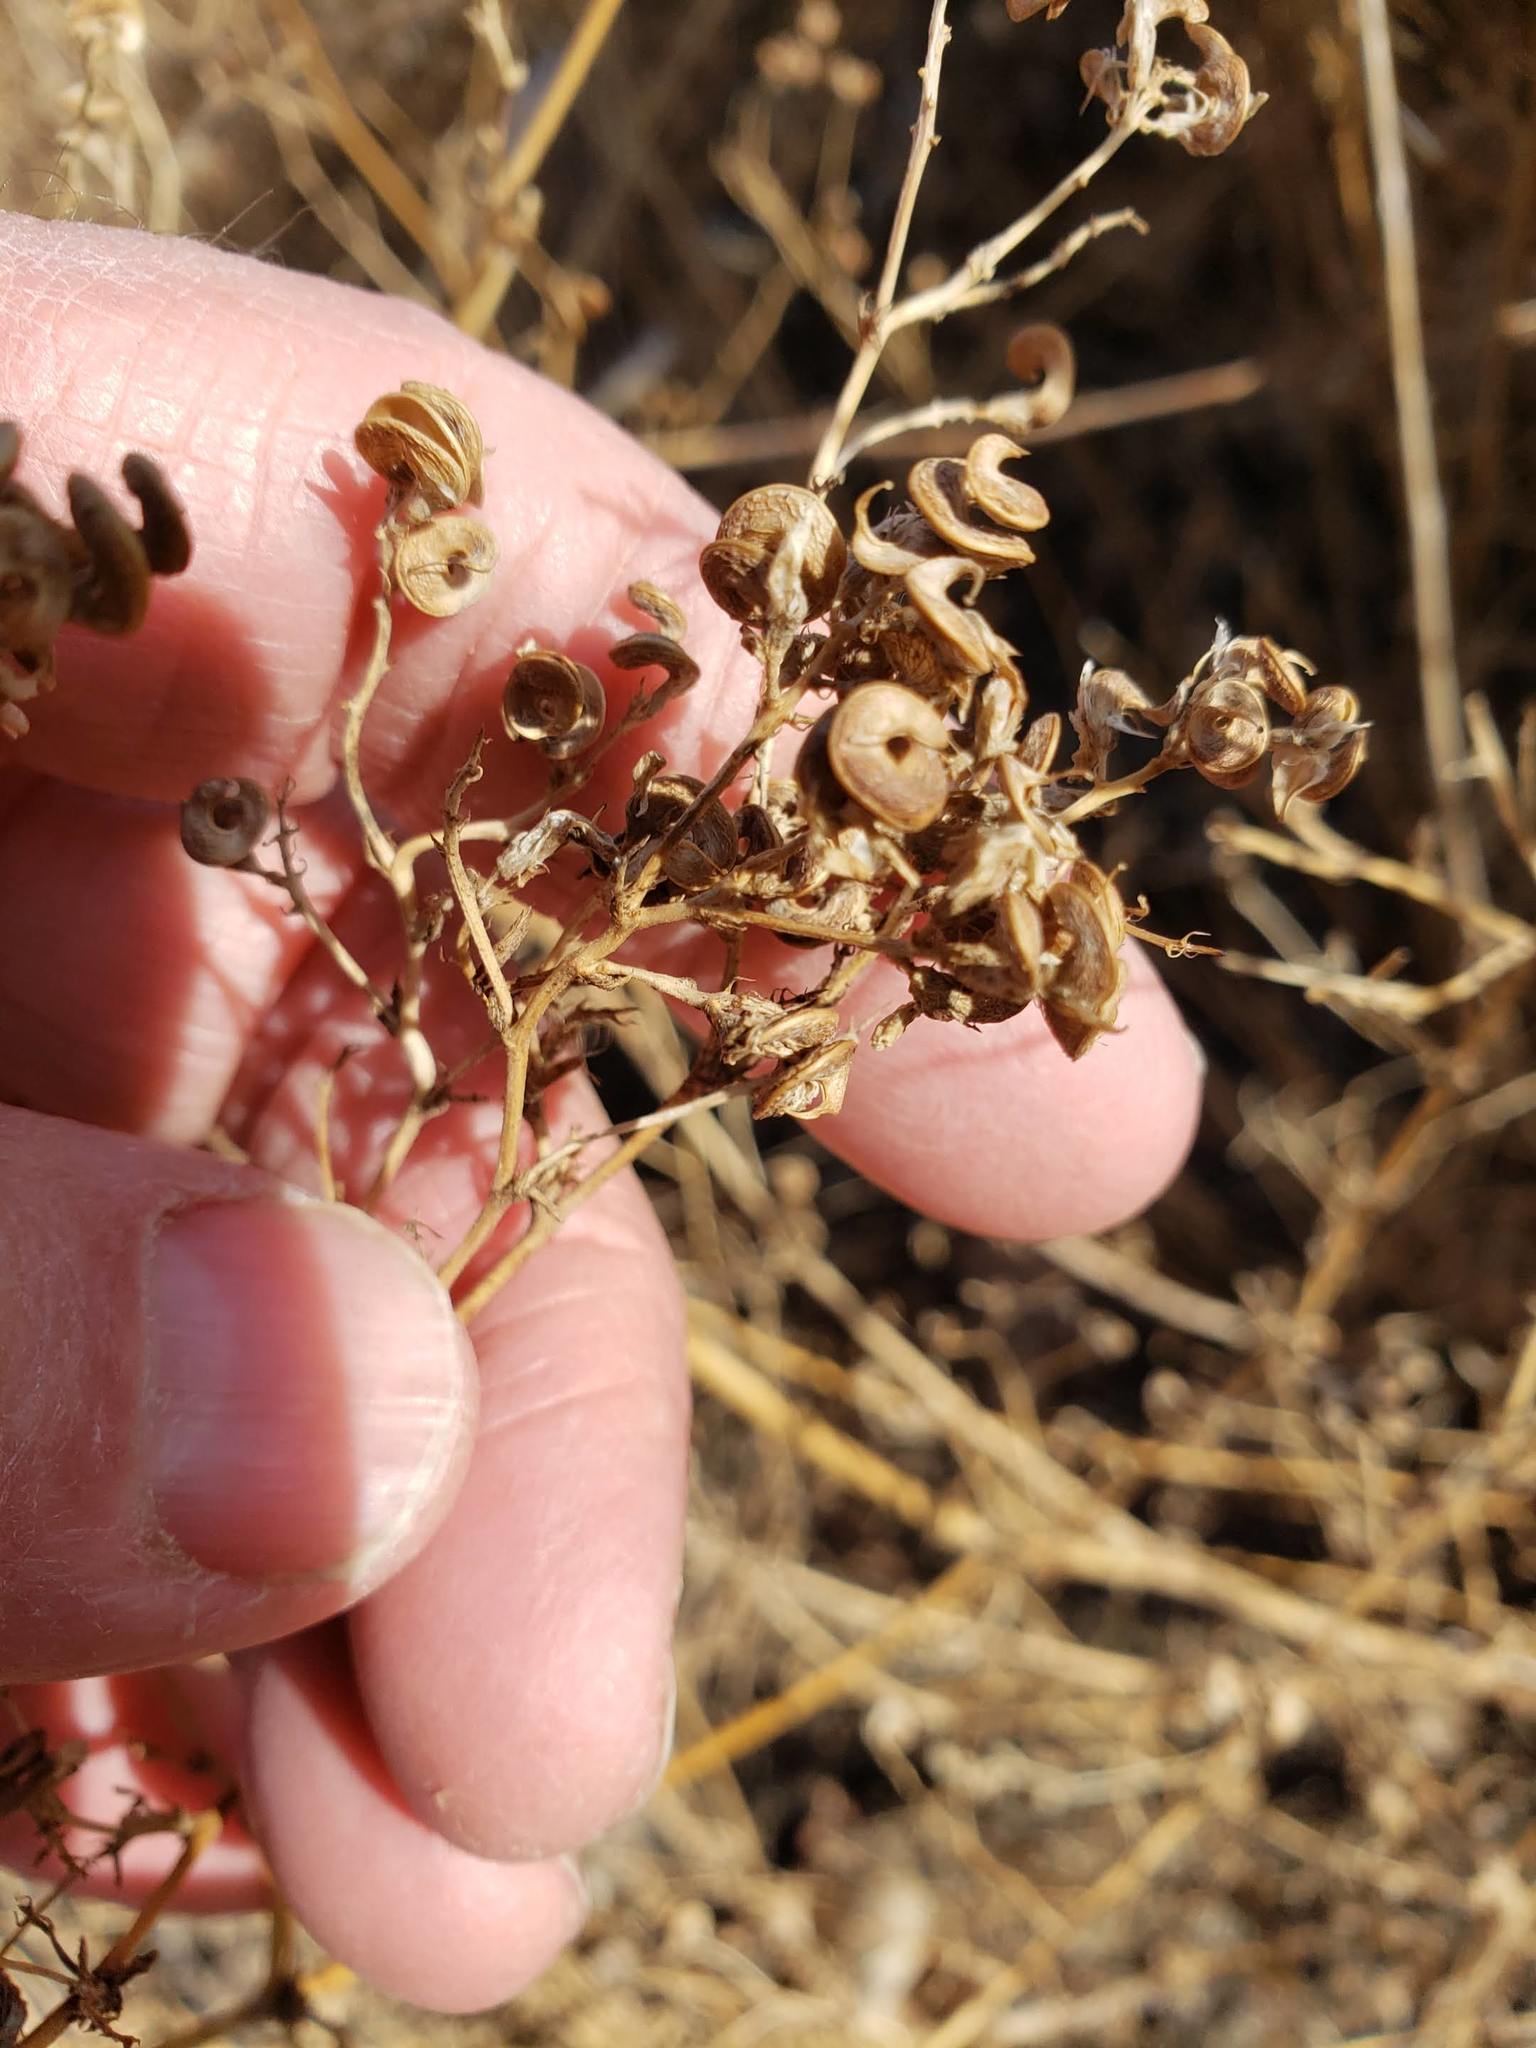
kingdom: Plantae
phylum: Tracheophyta
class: Magnoliopsida
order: Fabales
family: Fabaceae
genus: Medicago
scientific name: Medicago sativa
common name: Alfalfa
